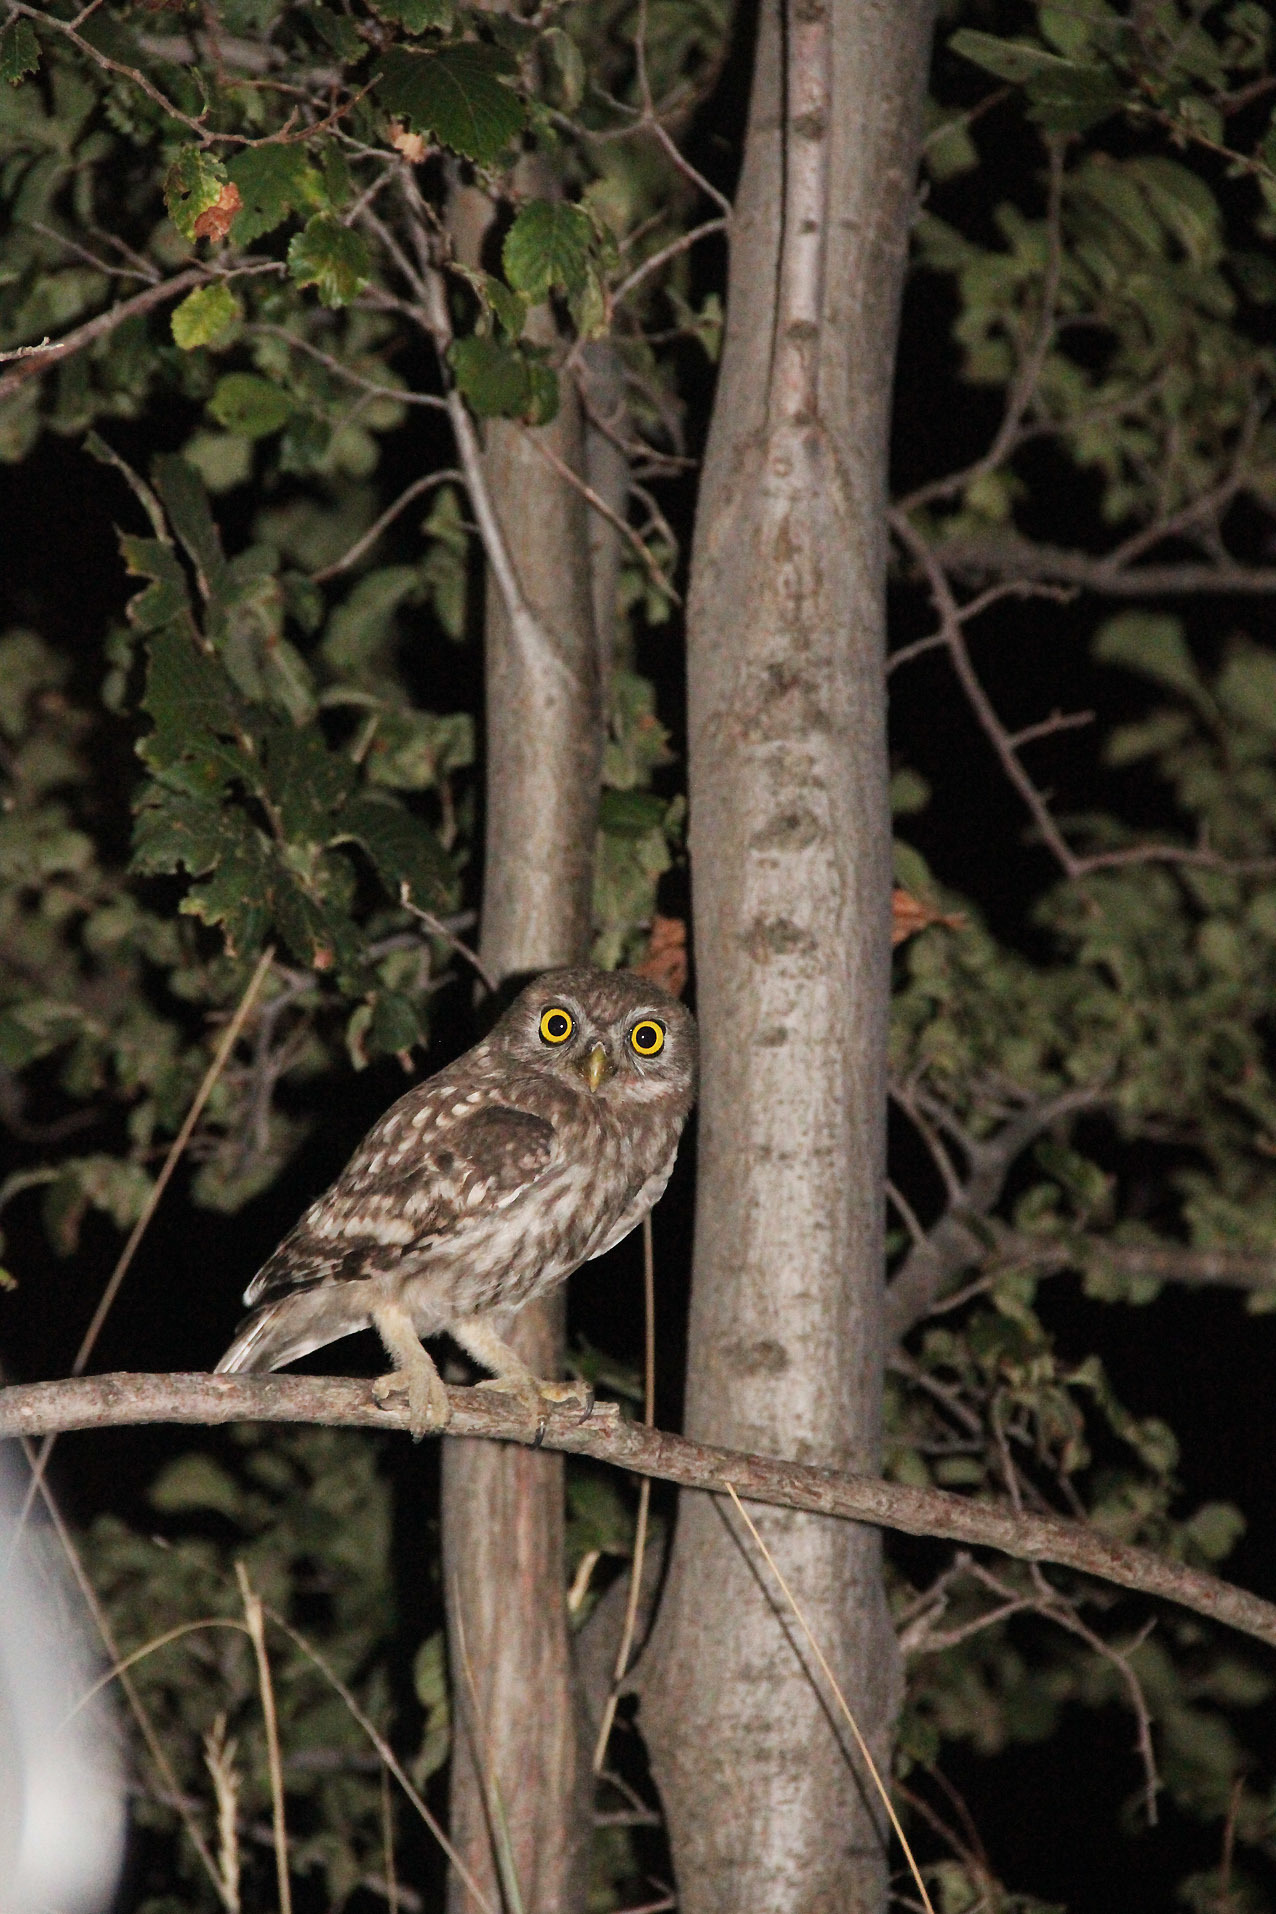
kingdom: Animalia
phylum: Chordata
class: Aves
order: Strigiformes
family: Strigidae
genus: Athene
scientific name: Athene noctua
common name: Little owl
